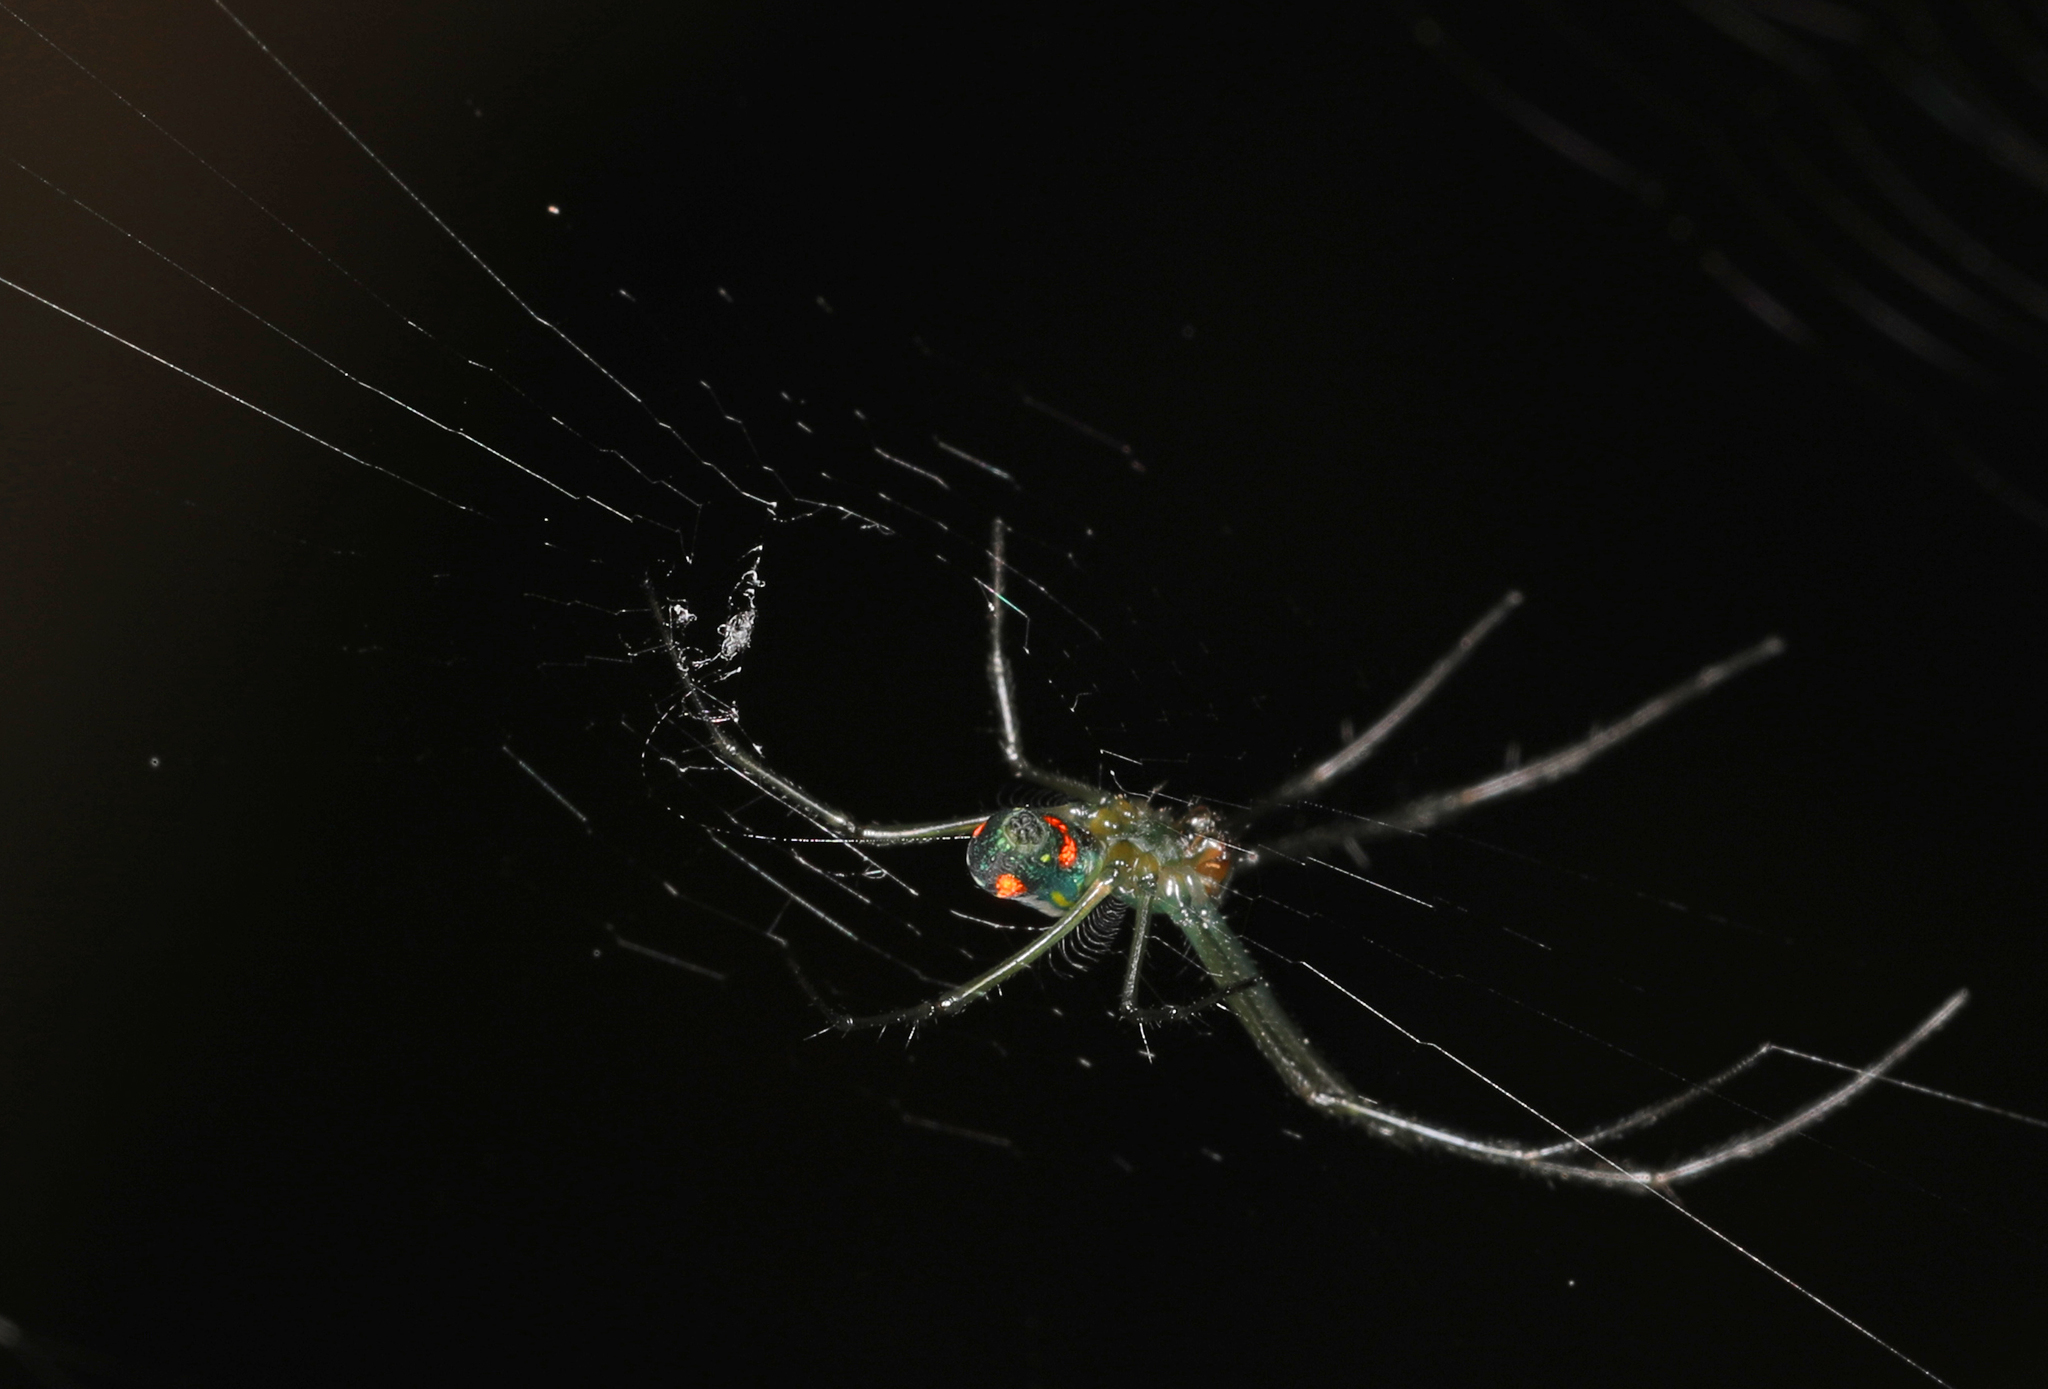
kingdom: Animalia
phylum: Arthropoda
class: Arachnida
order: Araneae
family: Tetragnathidae
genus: Leucauge
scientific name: Leucauge argyrobapta
